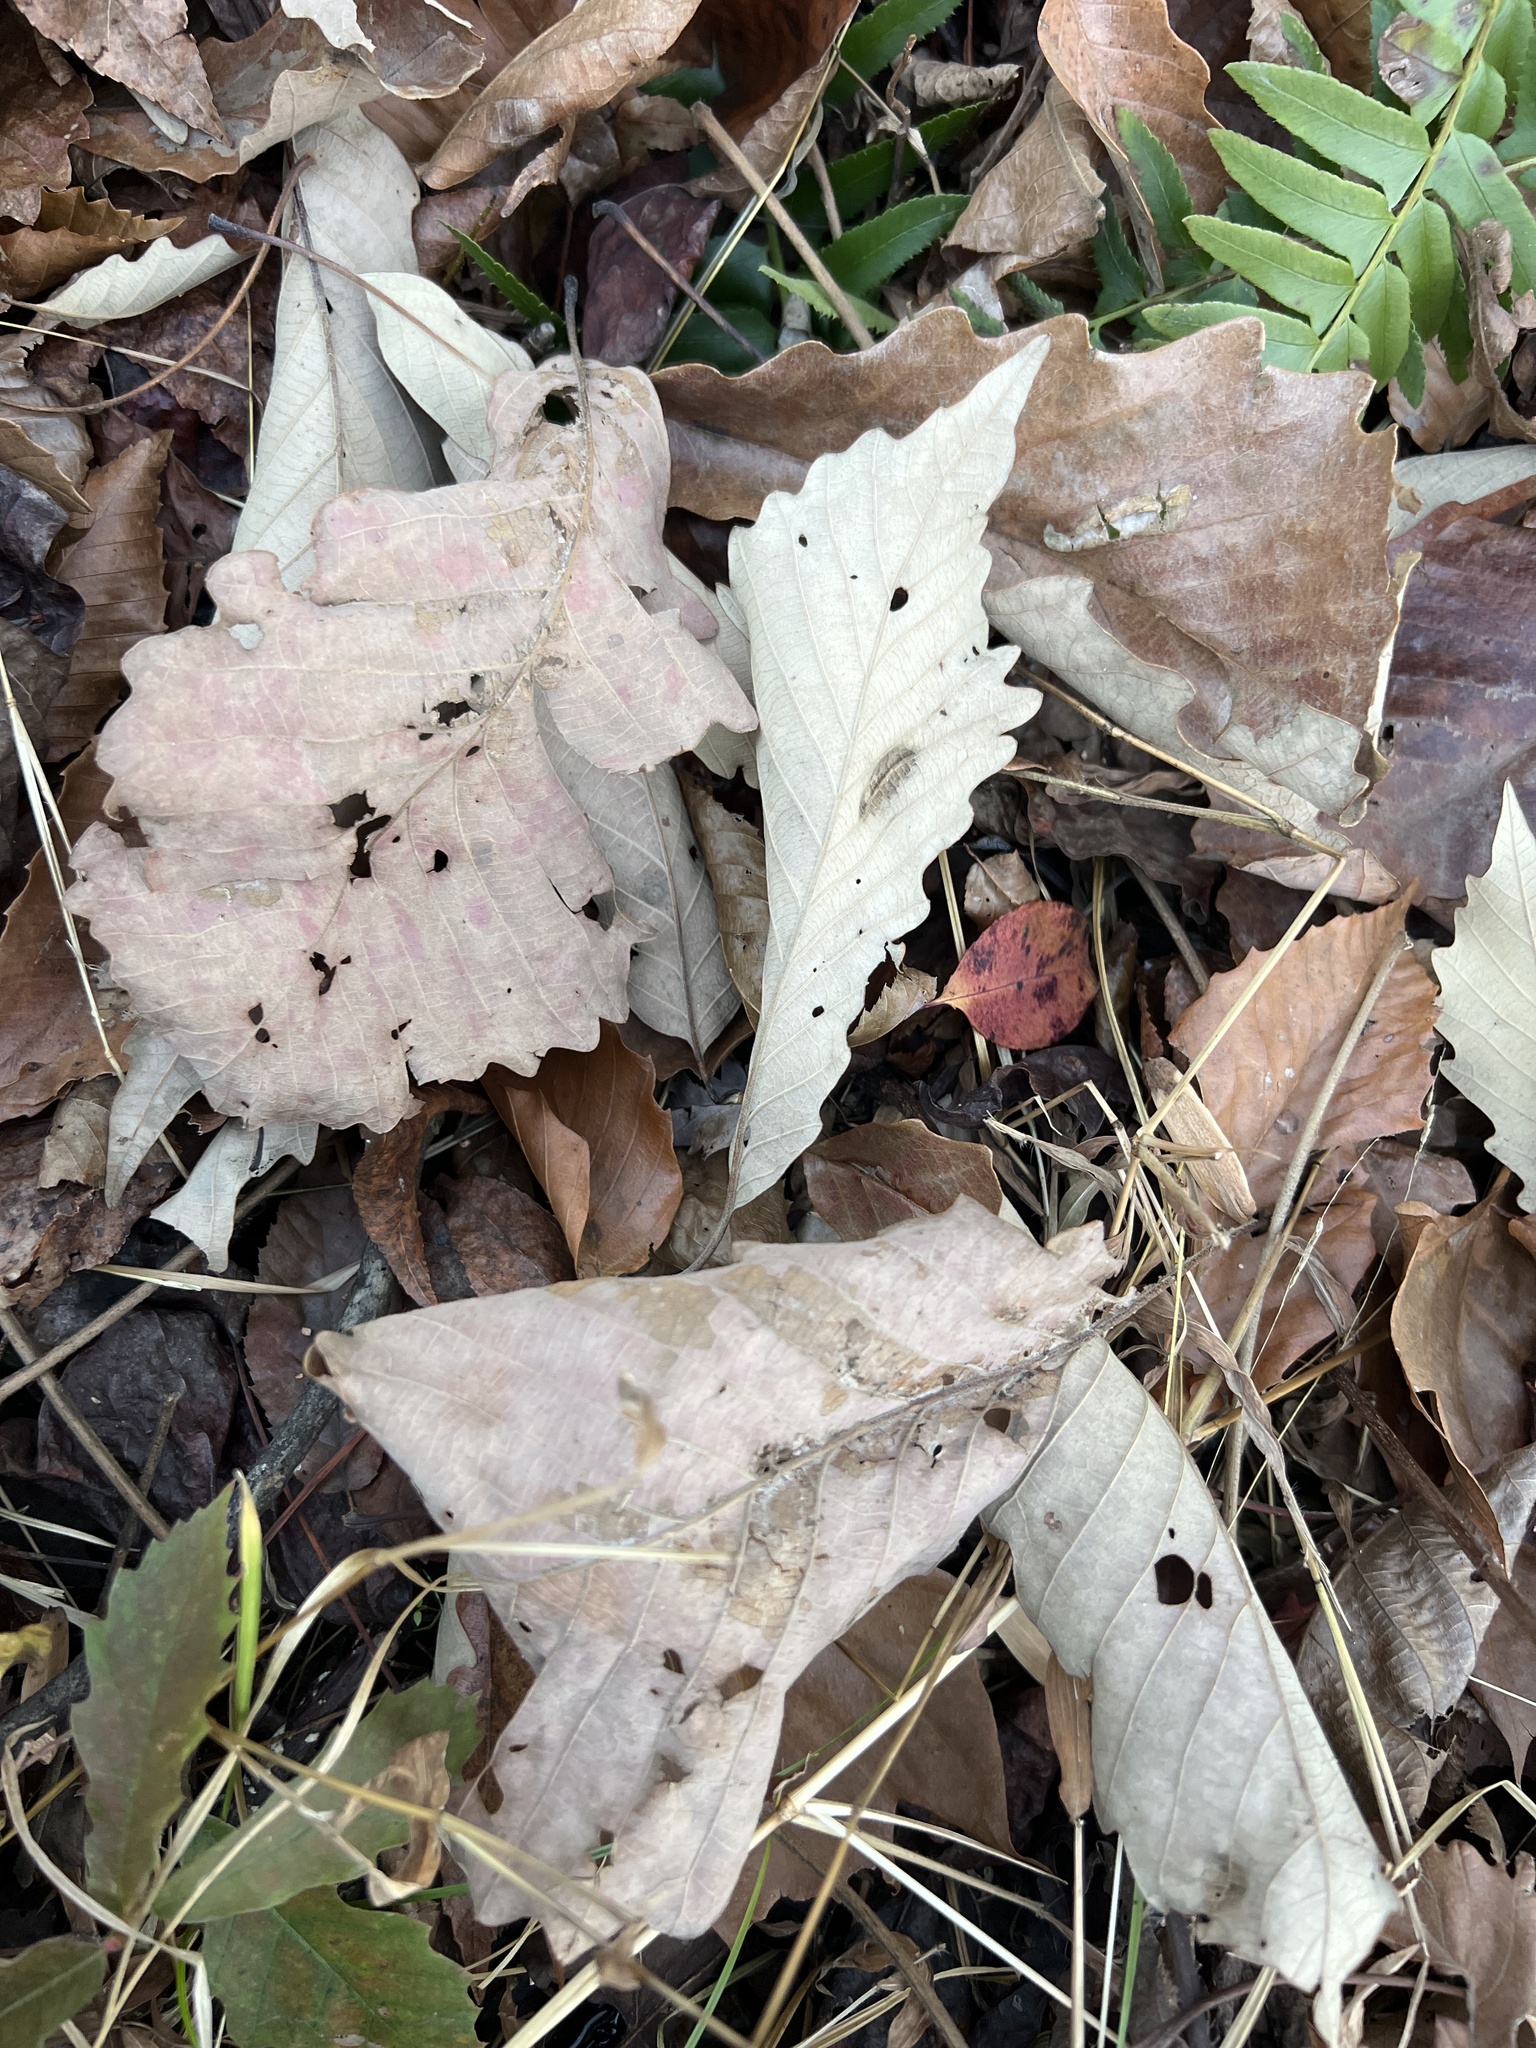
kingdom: Plantae
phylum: Tracheophyta
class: Magnoliopsida
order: Fagales
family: Fagaceae
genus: Quercus
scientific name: Quercus michauxii
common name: Swamp chestnut oak
